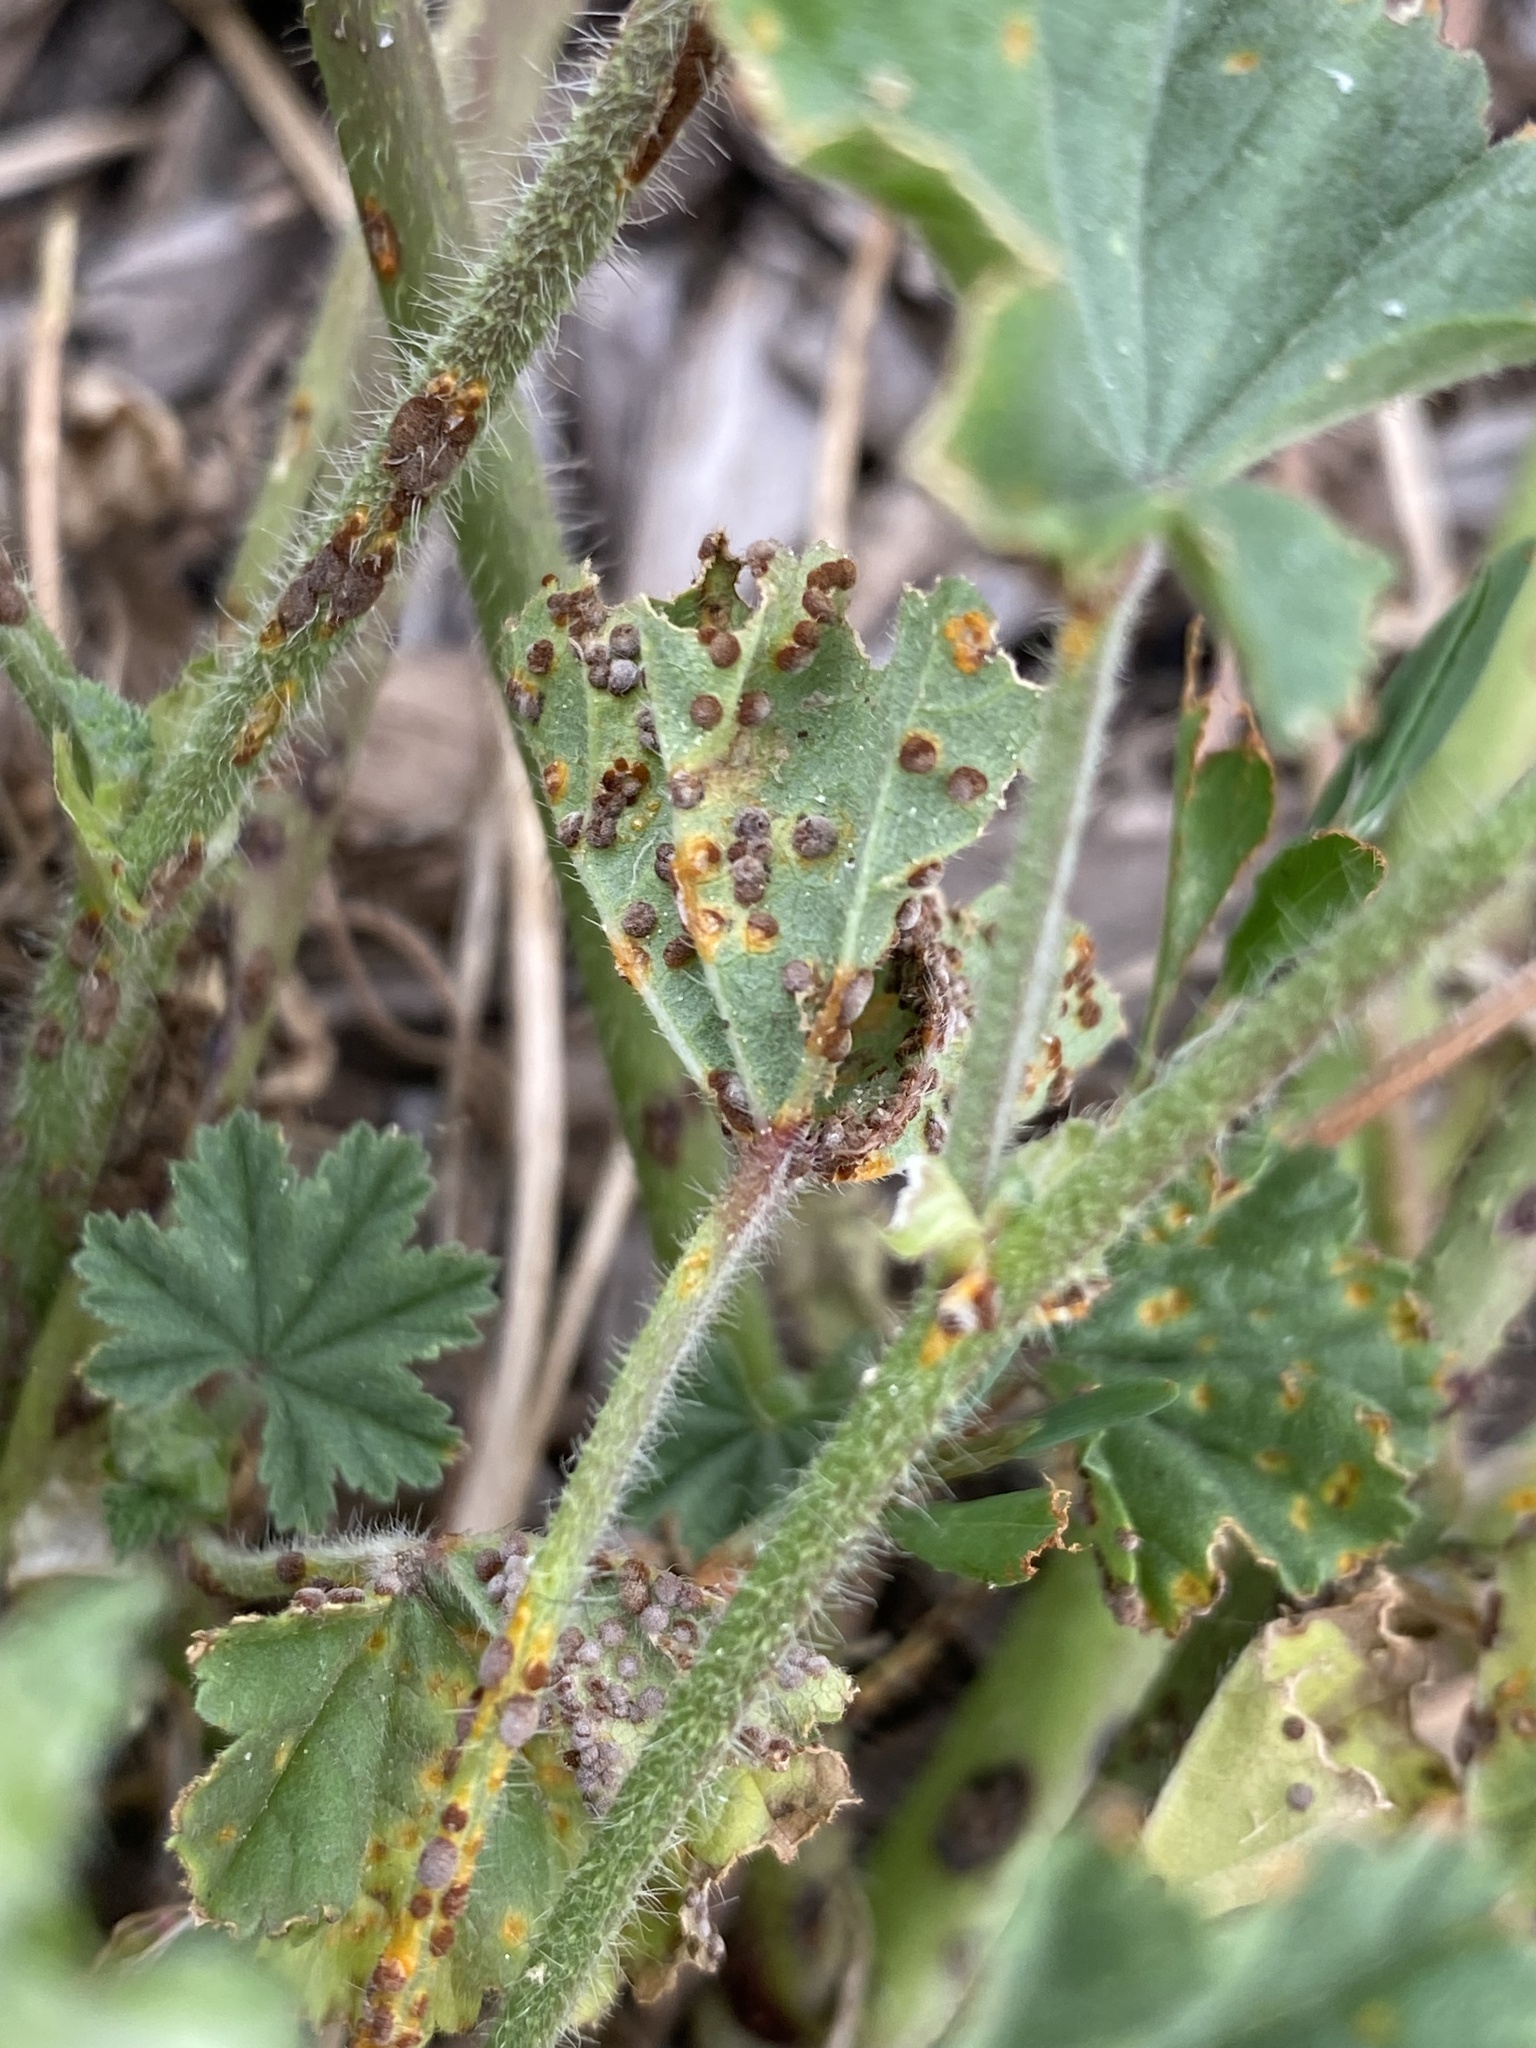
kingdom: Fungi
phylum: Basidiomycota
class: Pucciniomycetes
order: Pucciniales
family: Pucciniaceae
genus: Puccinia
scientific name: Puccinia malvacearum
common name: Hollyhock rust
